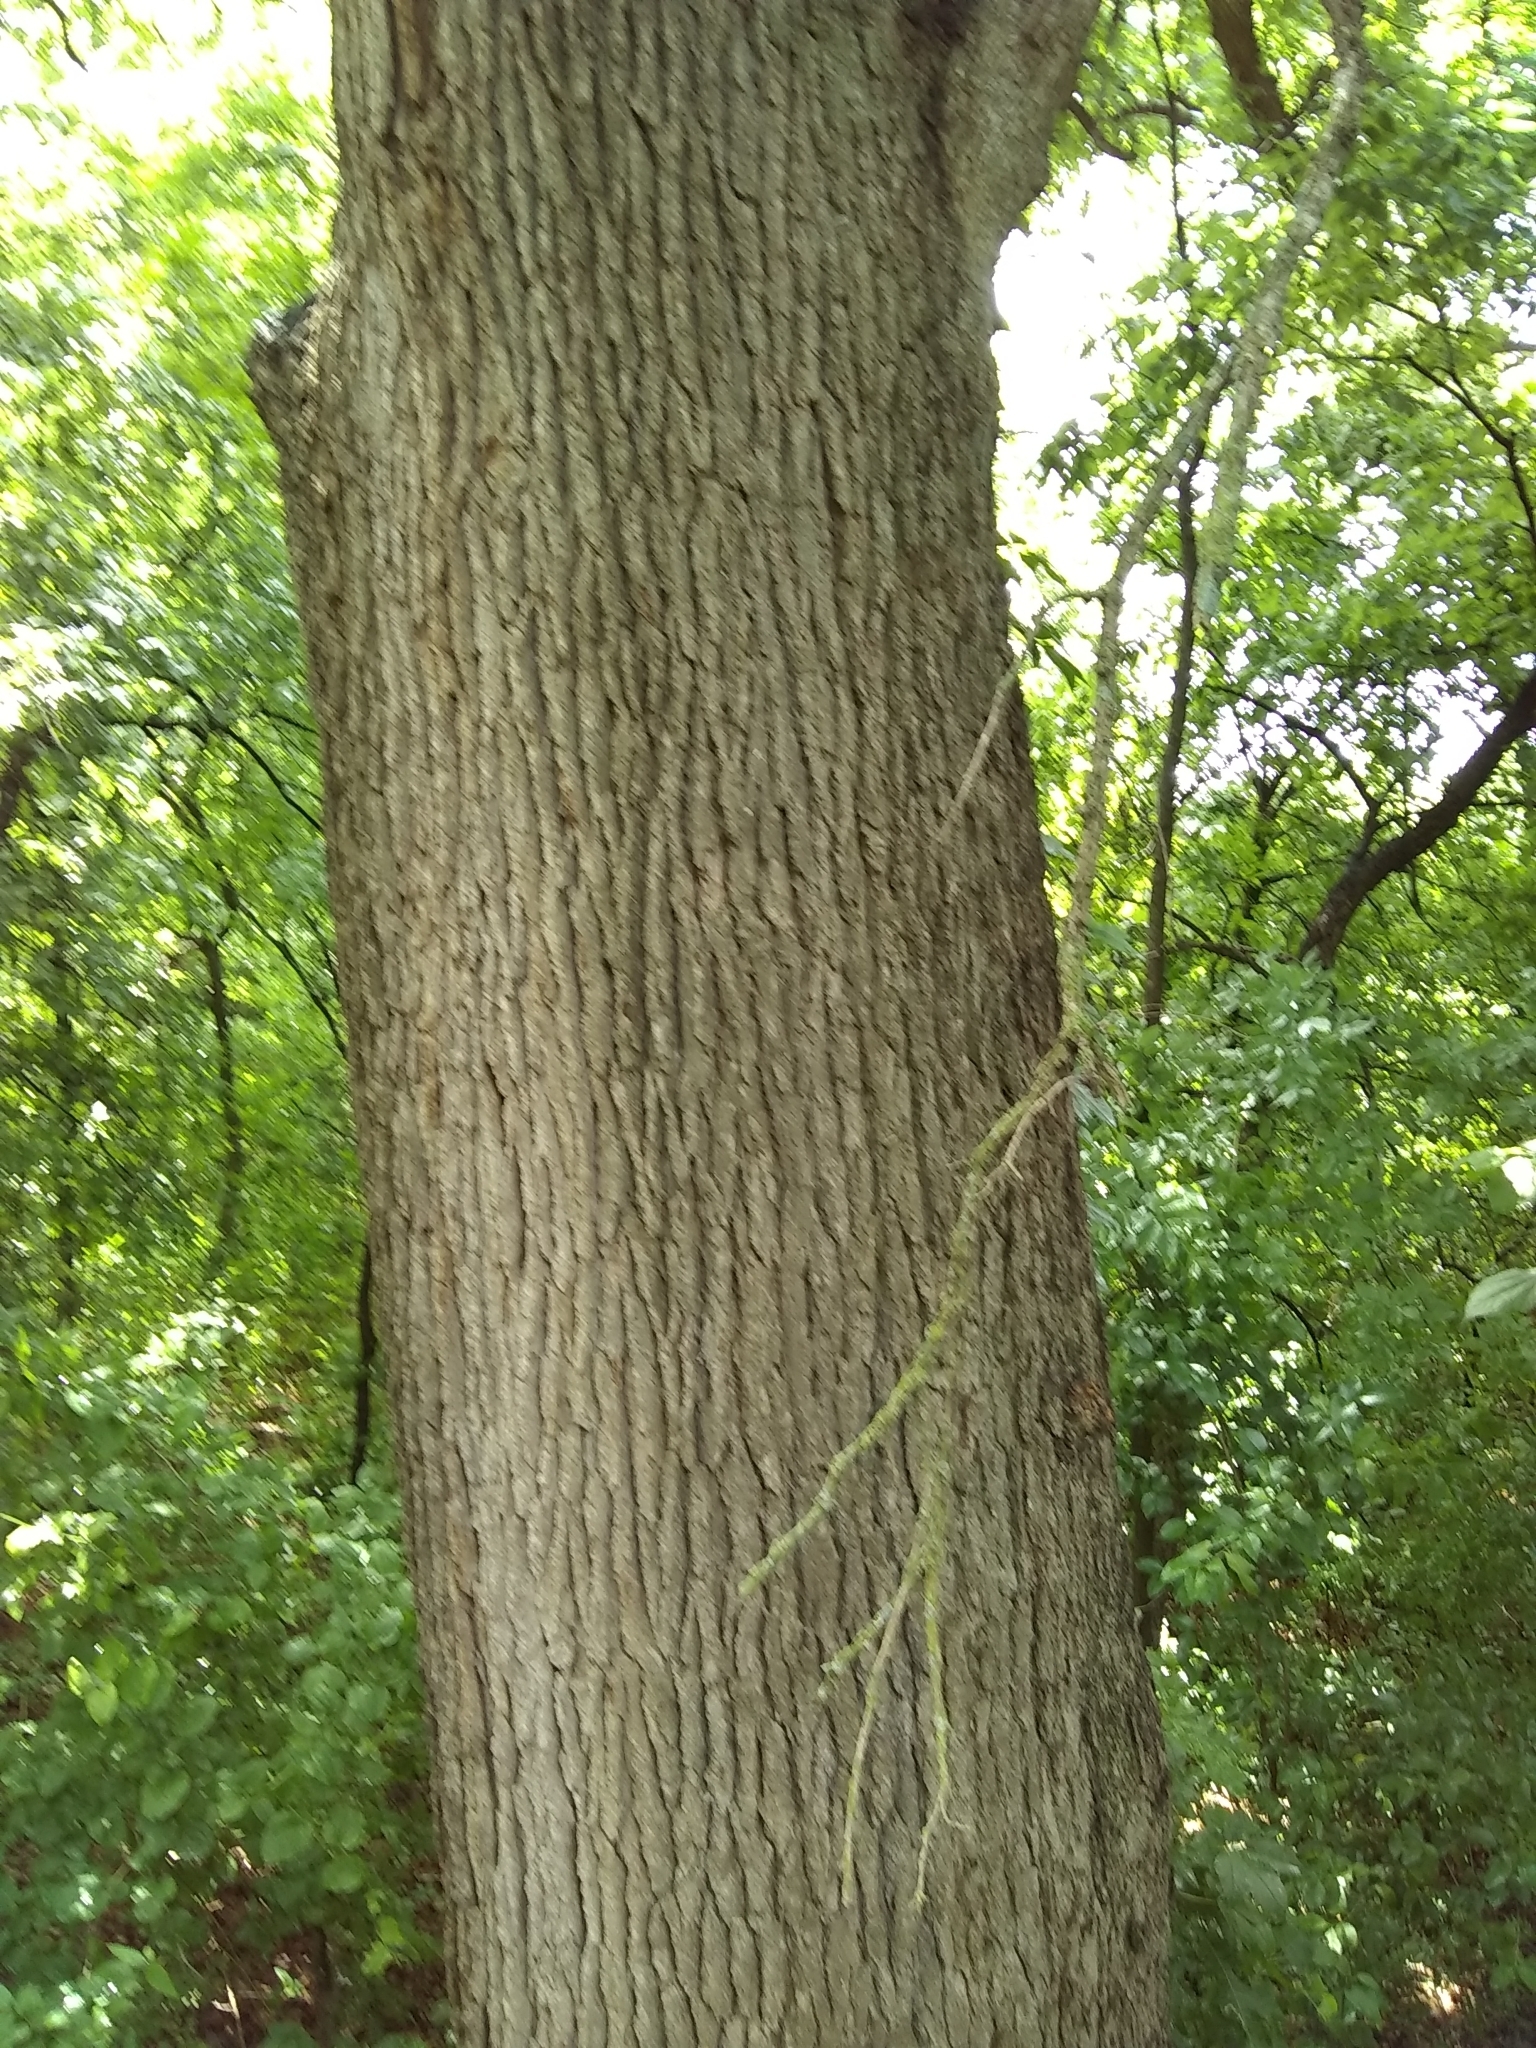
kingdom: Plantae
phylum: Tracheophyta
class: Magnoliopsida
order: Fagales
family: Fagaceae
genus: Quercus
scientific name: Quercus macrocarpa
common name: Bur oak
